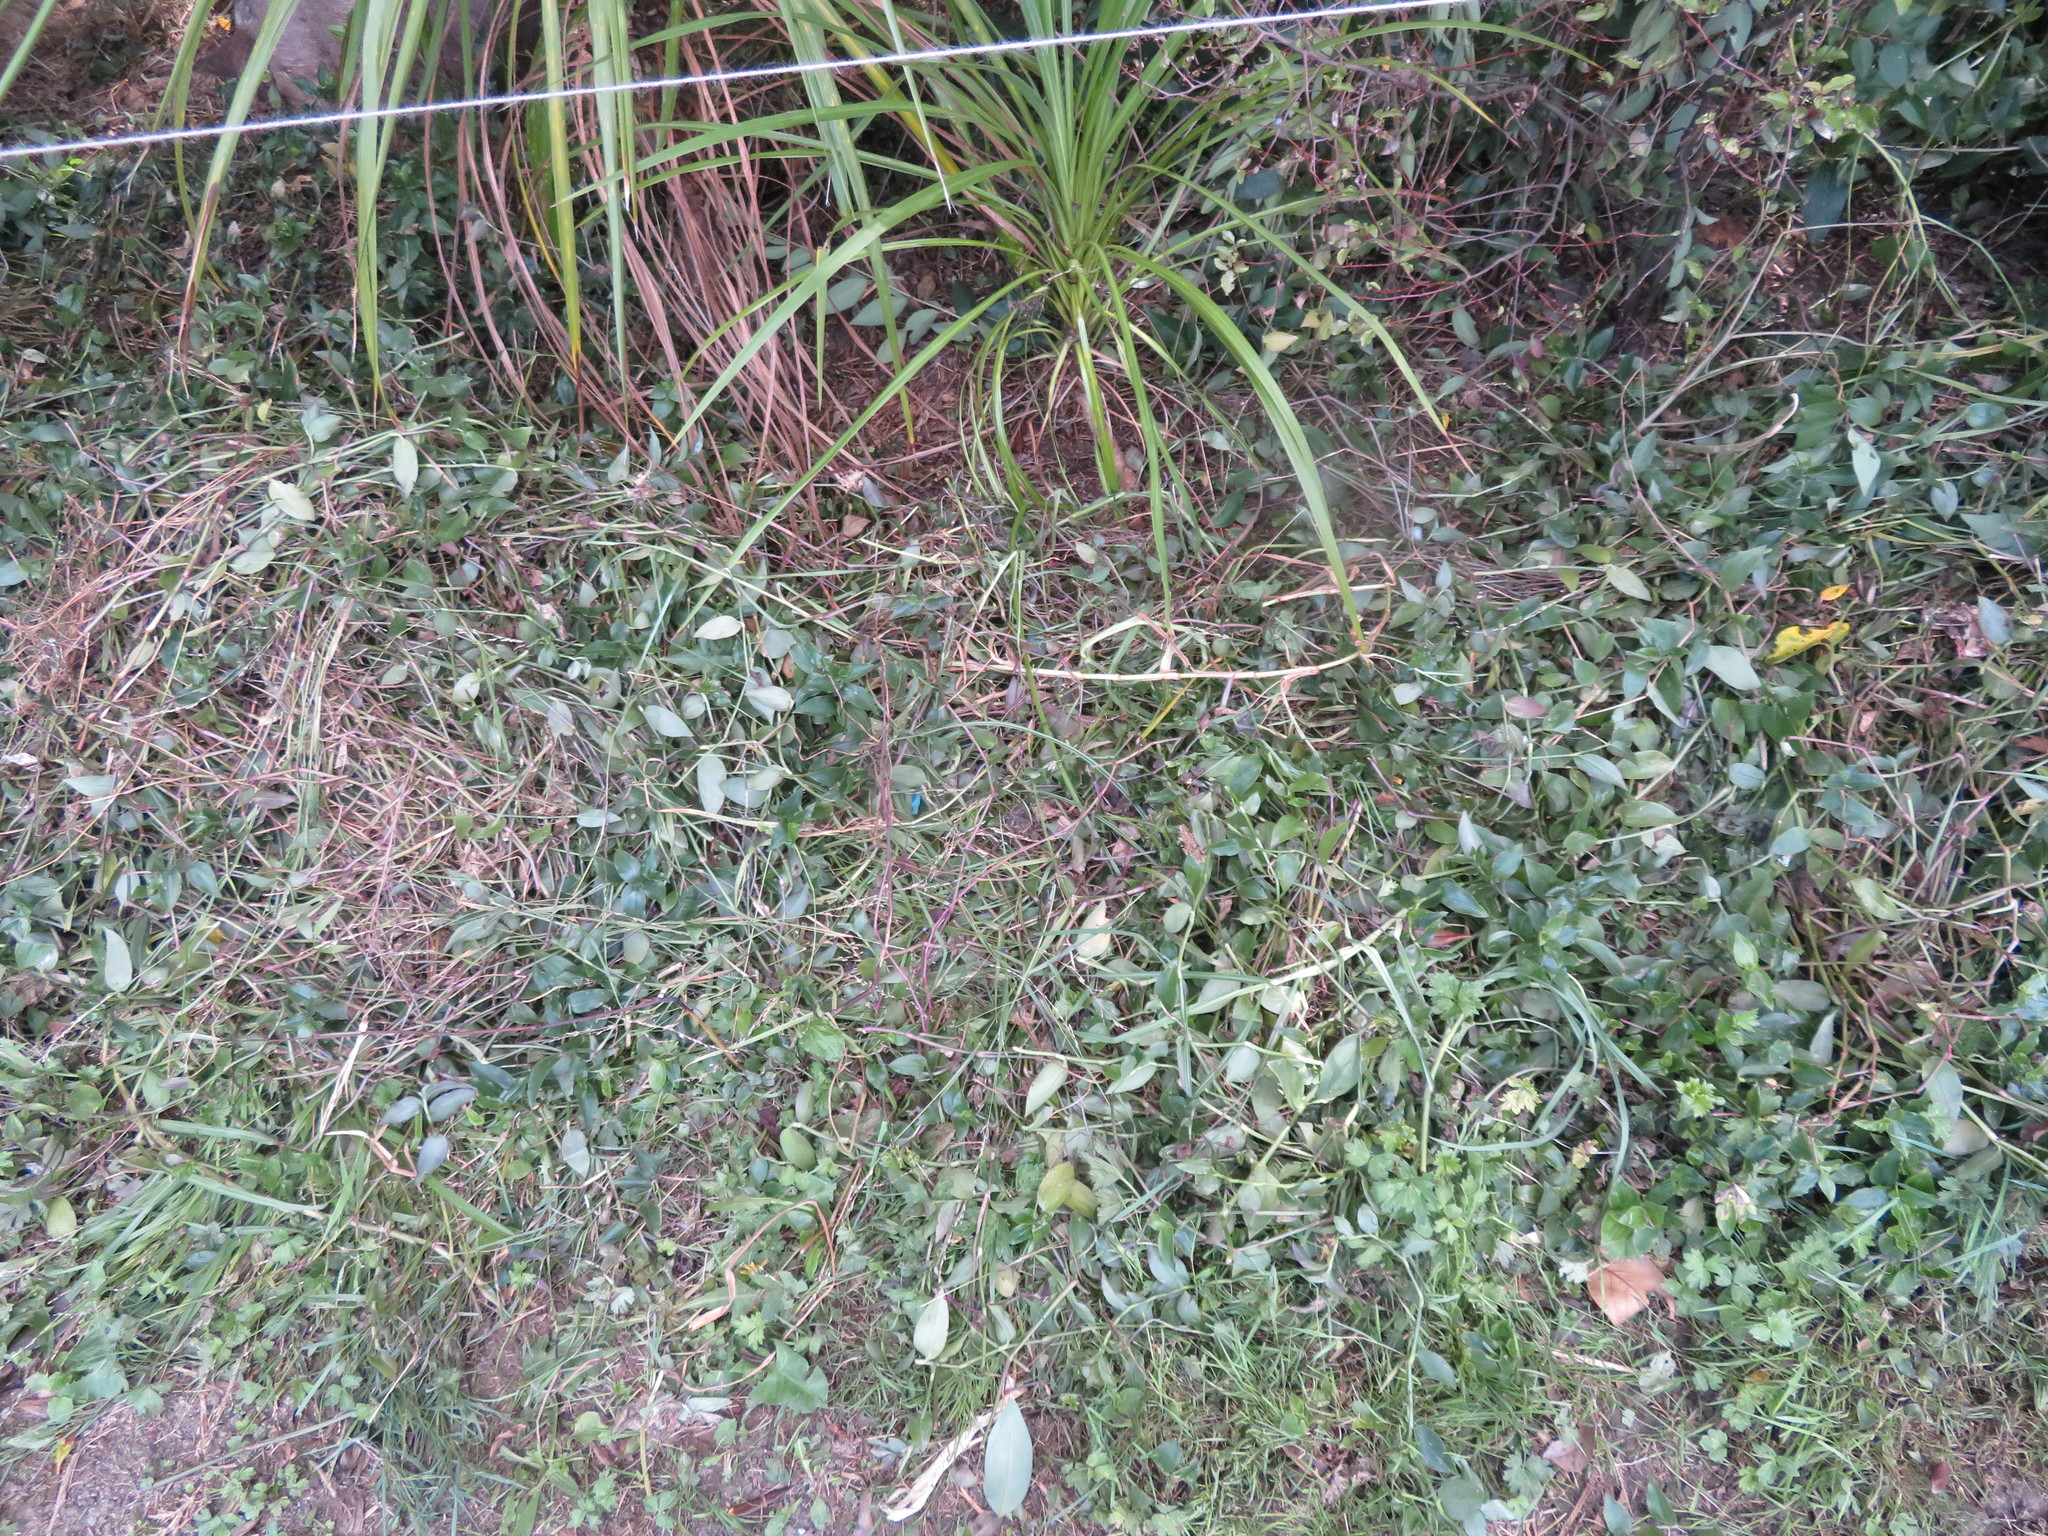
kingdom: Plantae
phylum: Tracheophyta
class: Liliopsida
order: Commelinales
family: Commelinaceae
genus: Tradescantia
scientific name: Tradescantia fluminensis
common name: Wandering-jew
